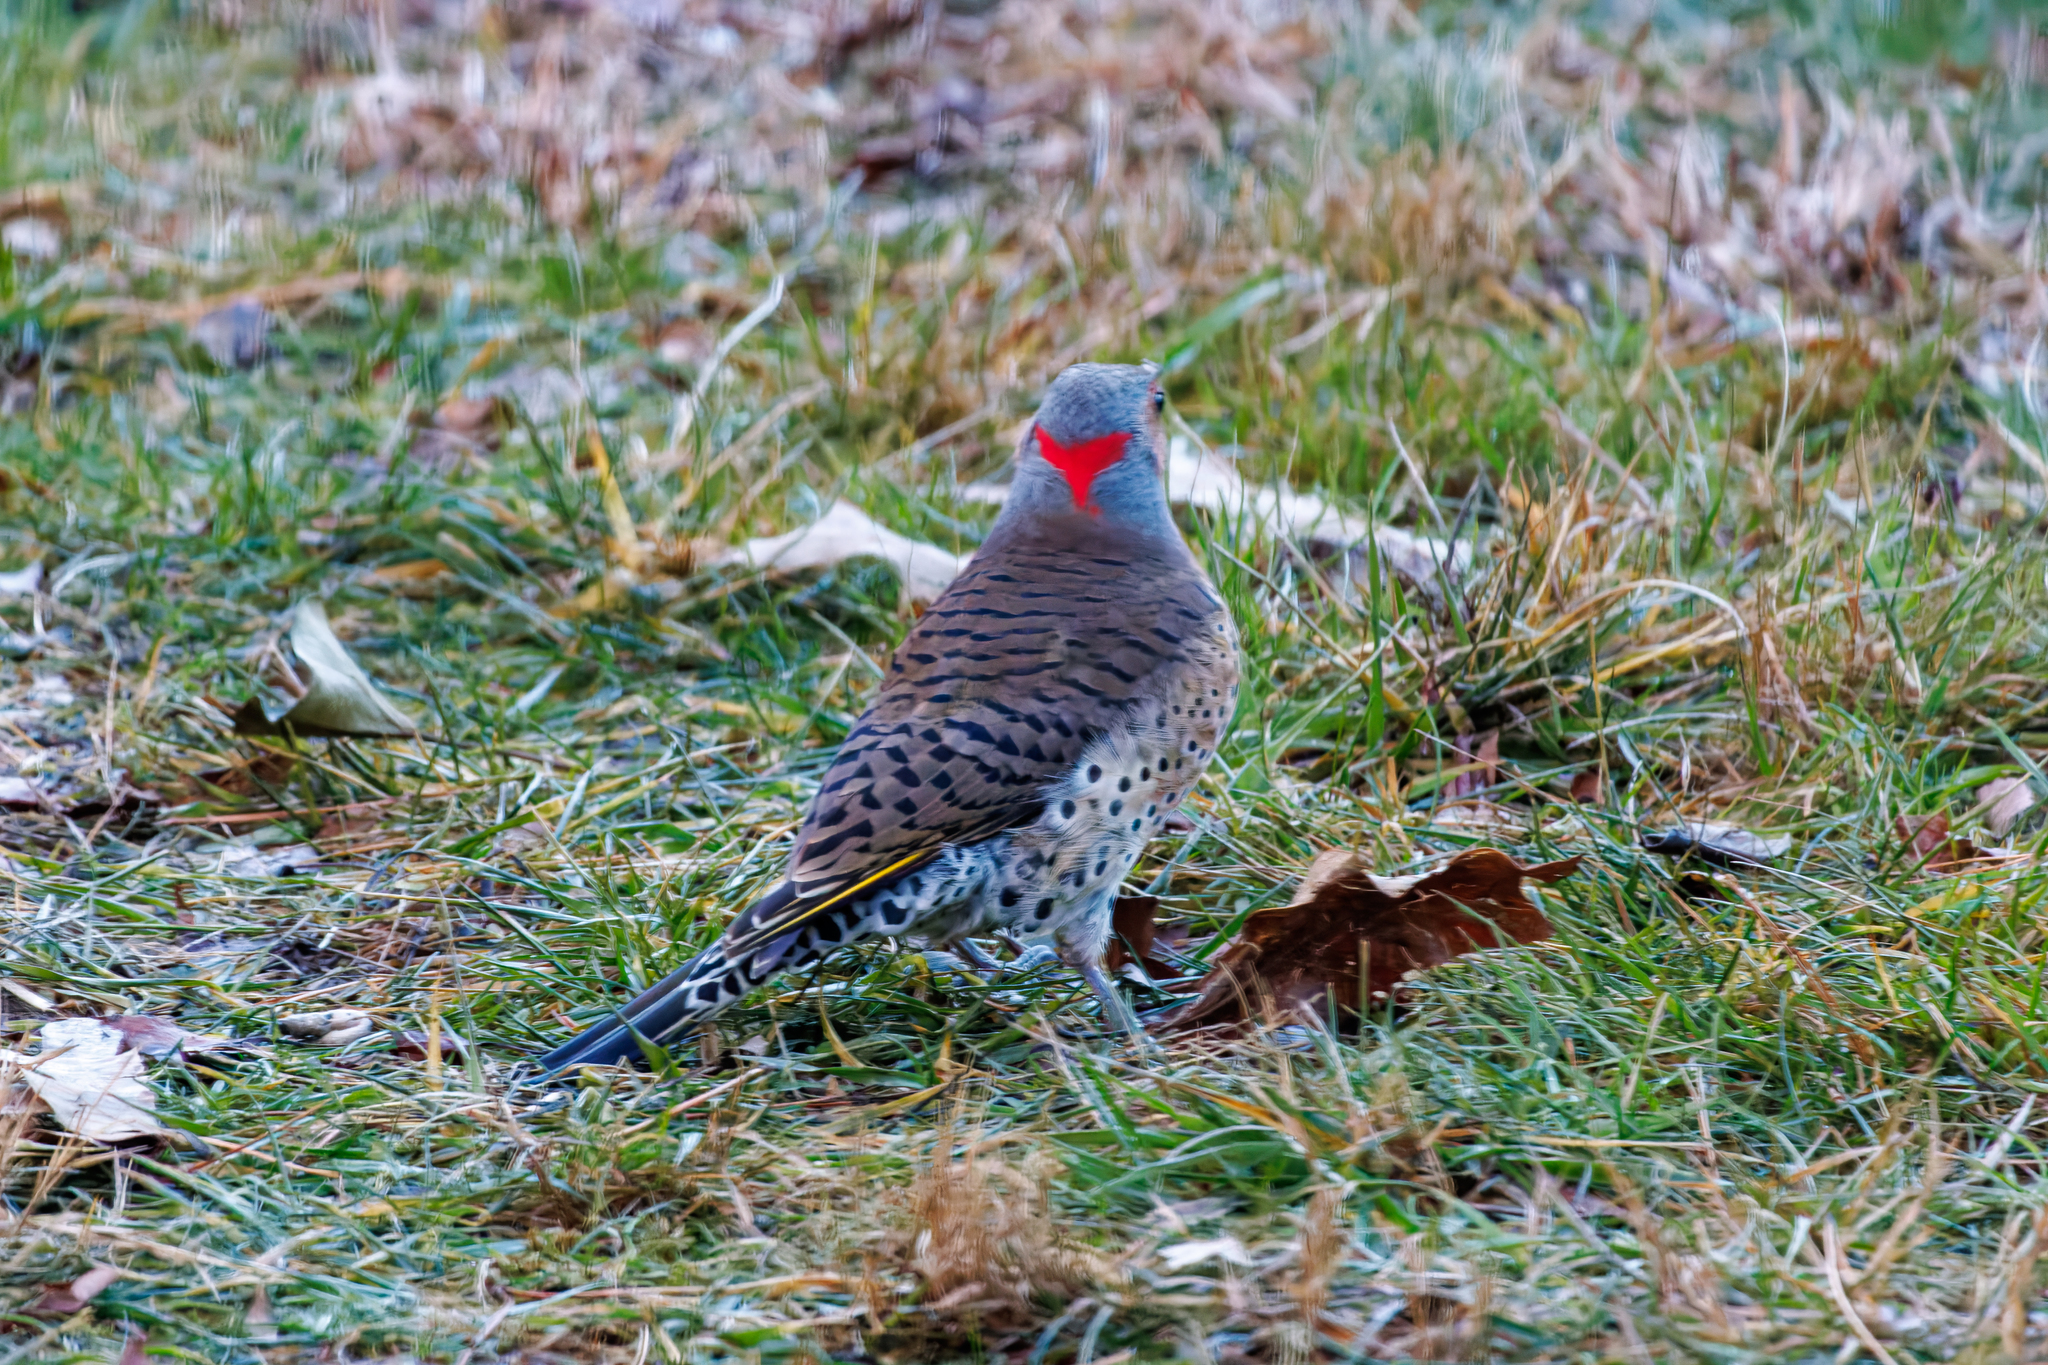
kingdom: Animalia
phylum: Chordata
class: Aves
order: Piciformes
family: Picidae
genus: Colaptes
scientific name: Colaptes auratus
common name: Northern flicker
